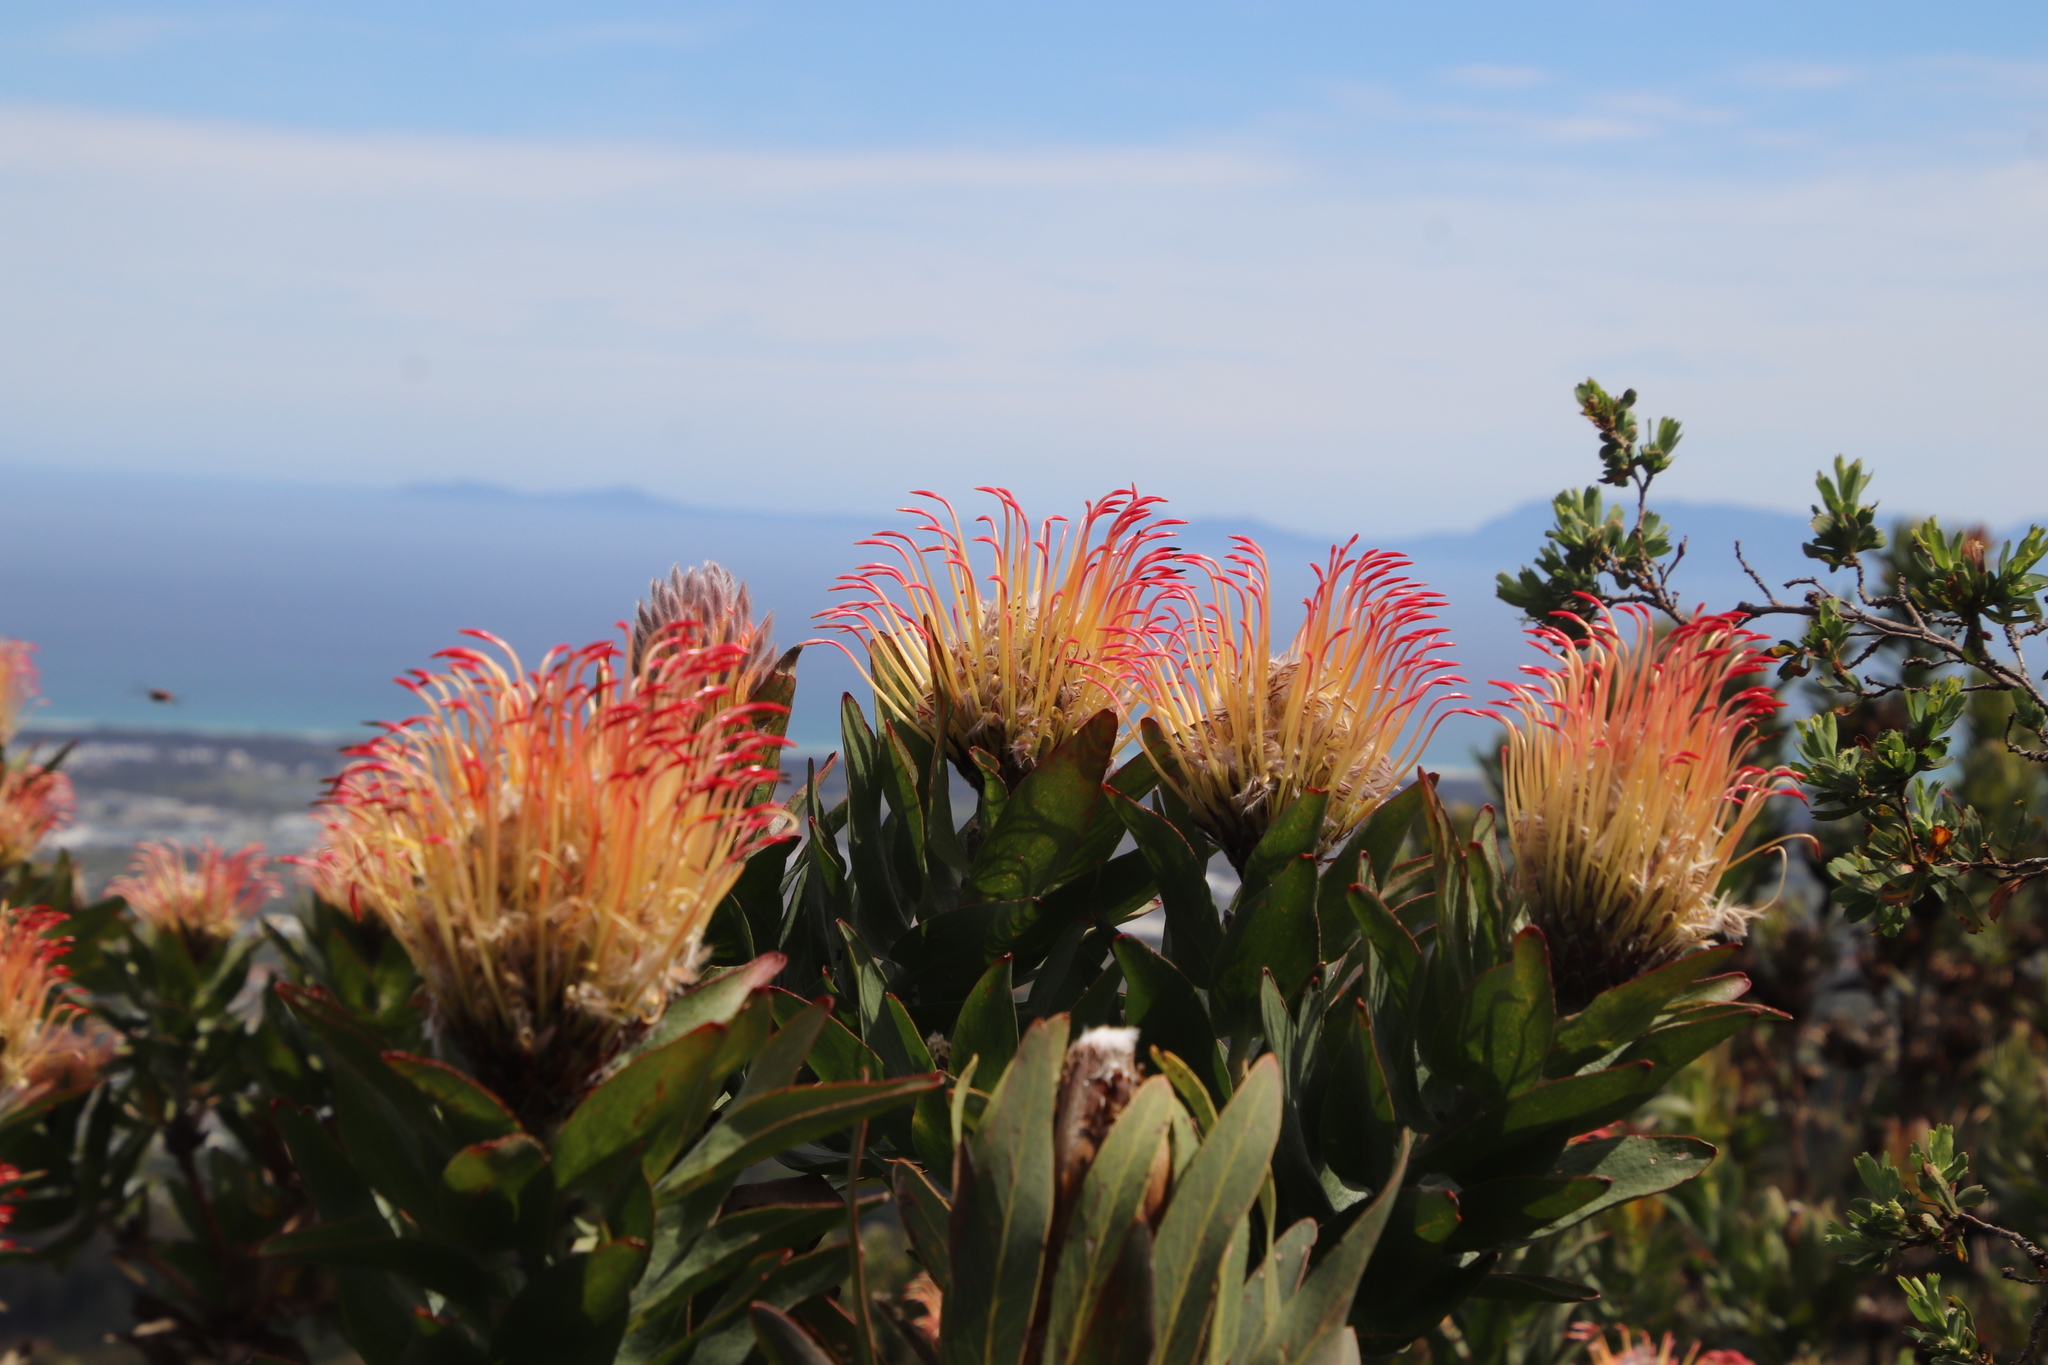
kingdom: Plantae
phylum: Tracheophyta
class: Magnoliopsida
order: Proteales
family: Proteaceae
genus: Leucospermum
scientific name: Leucospermum gueinzii
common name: Kloof fountain pincushion
